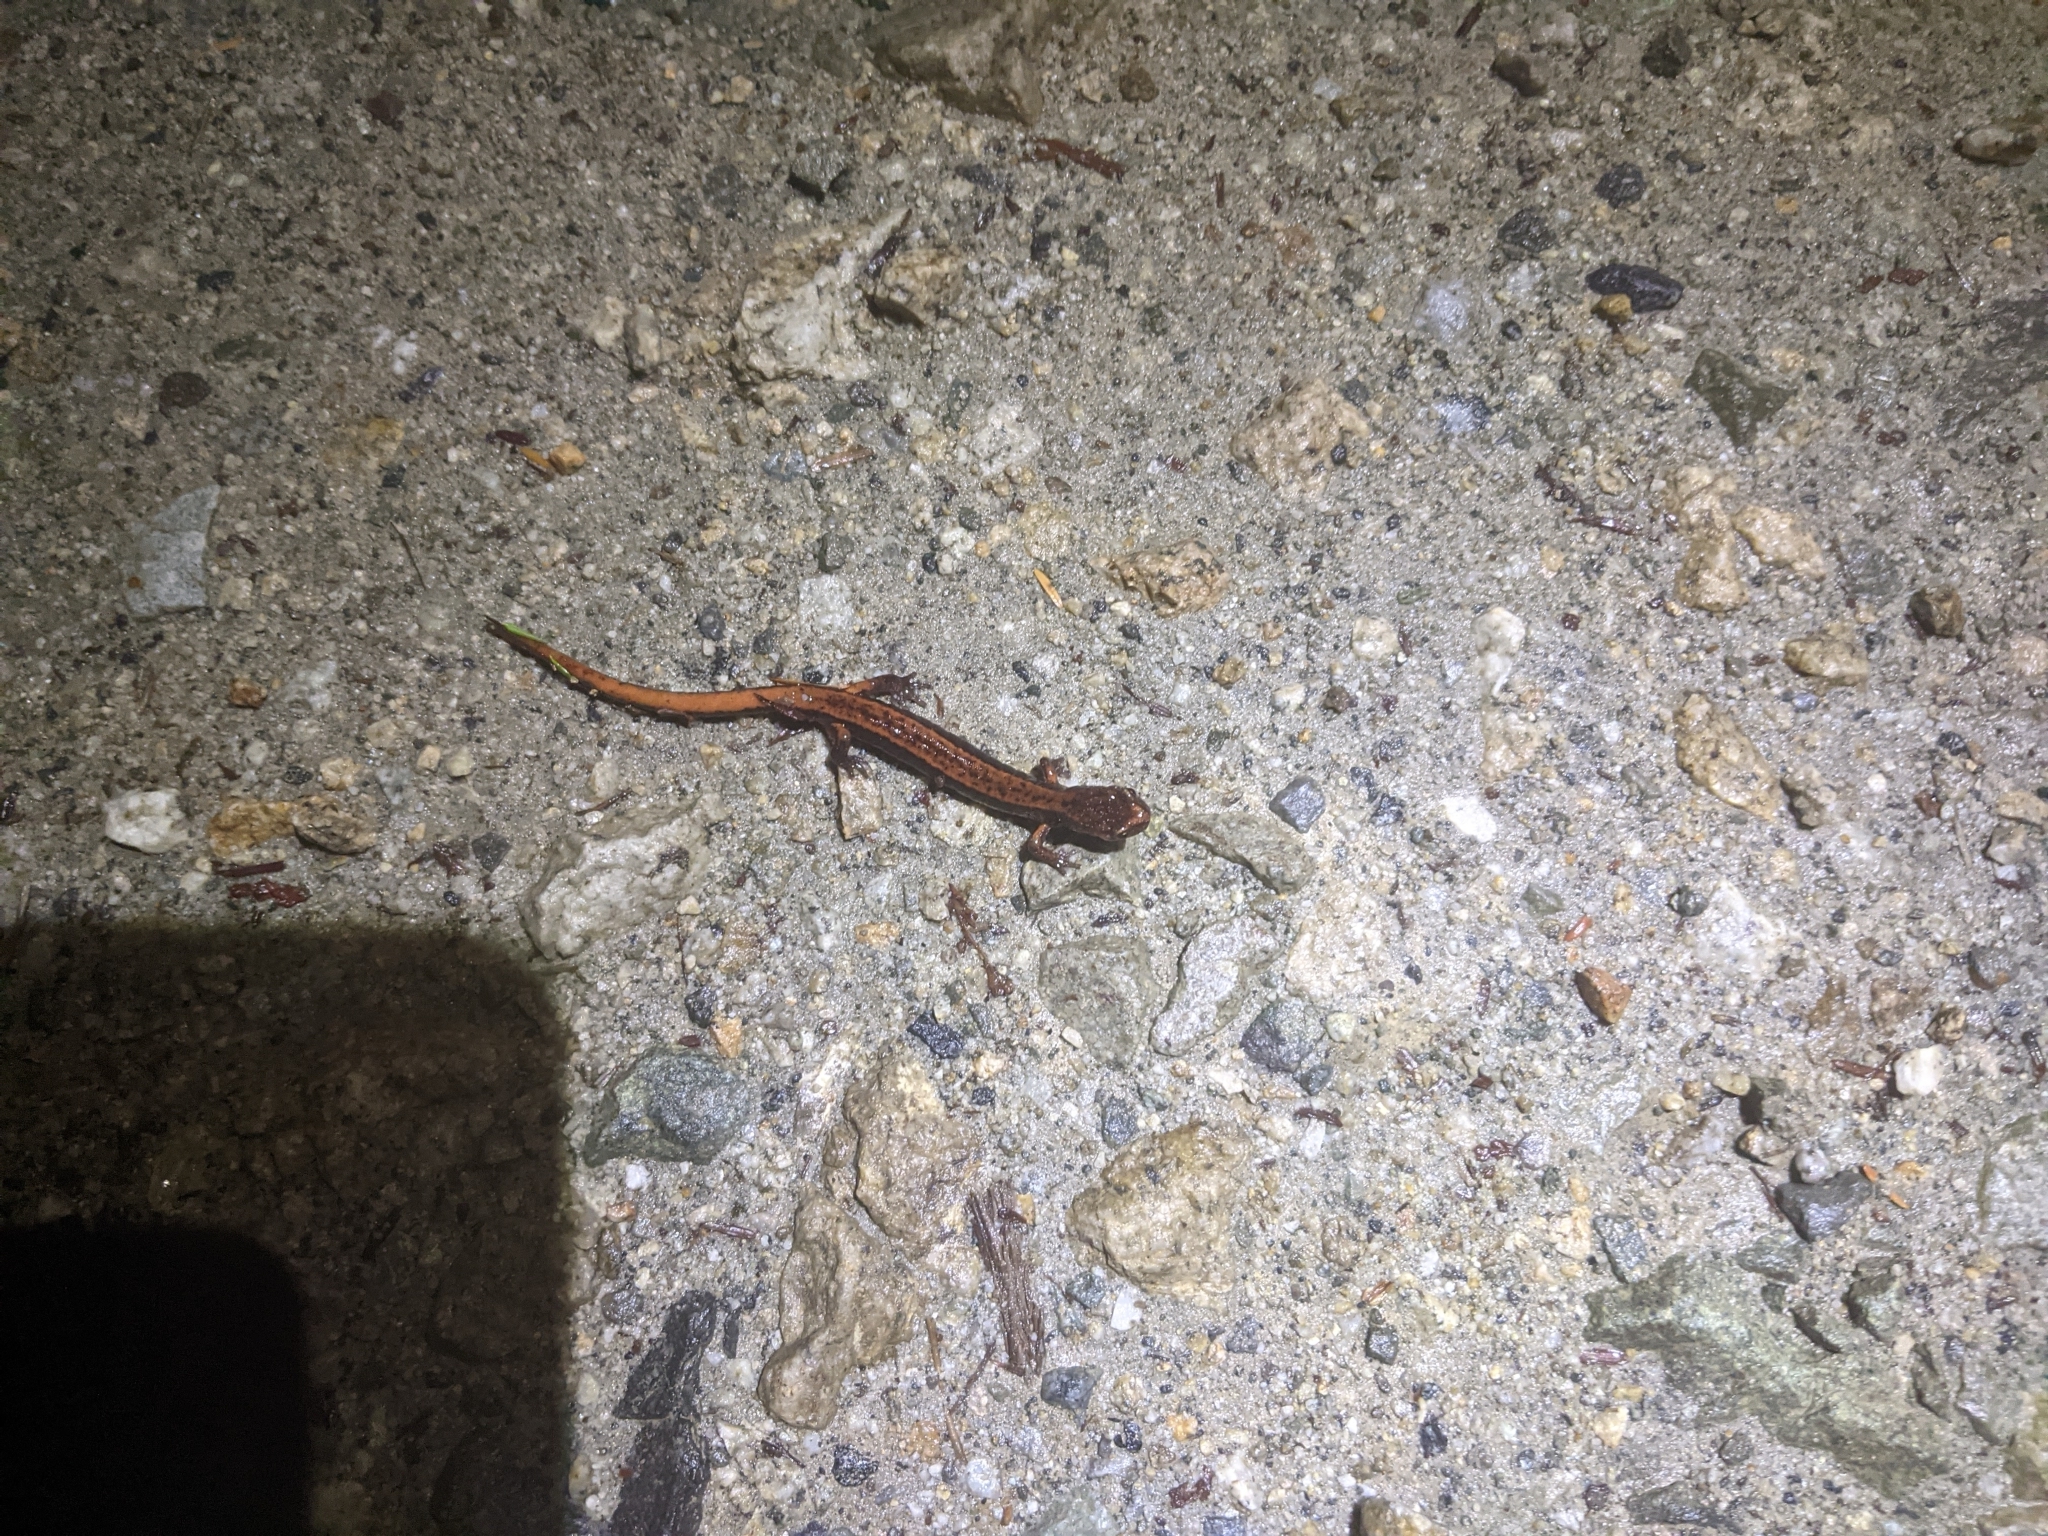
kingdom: Animalia
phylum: Chordata
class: Amphibia
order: Caudata
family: Plethodontidae
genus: Plethodon
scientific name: Plethodon vehiculum
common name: Western red-backed salamander
